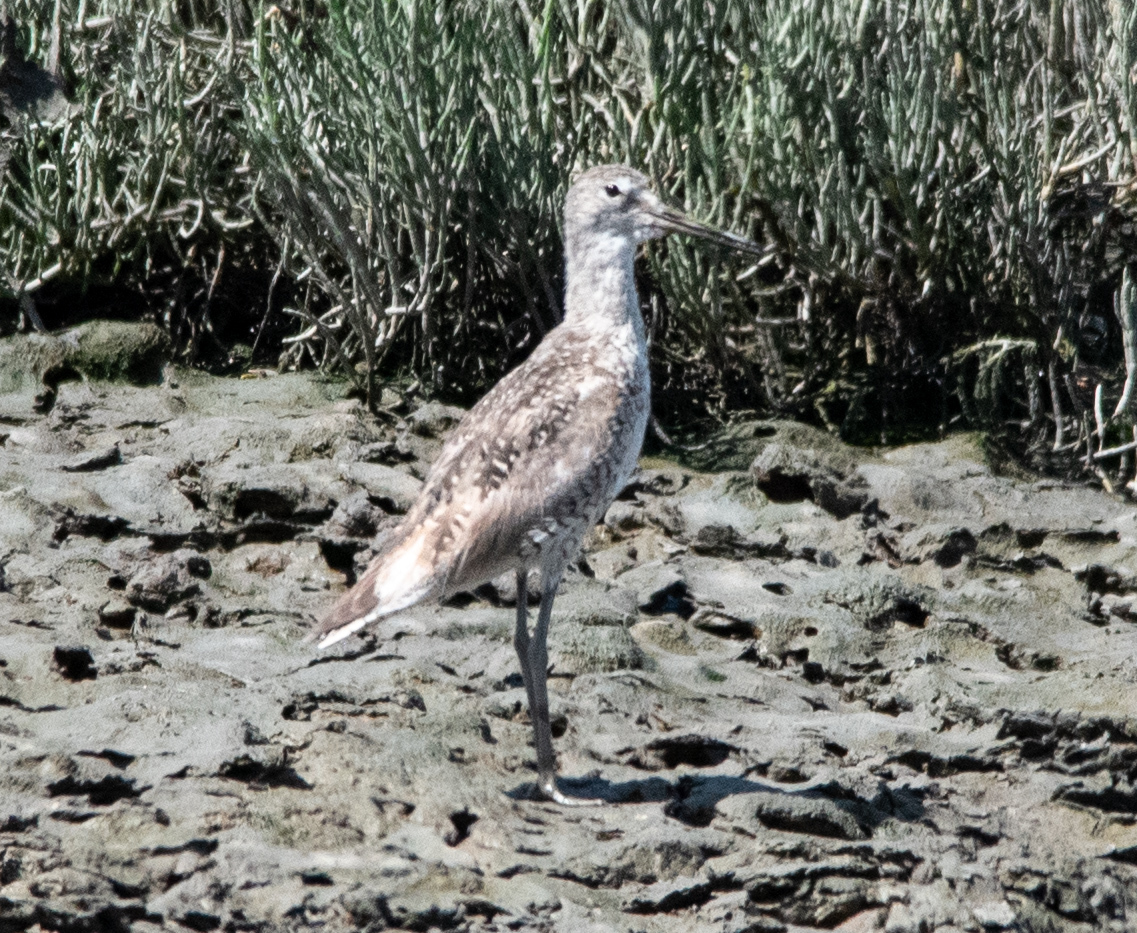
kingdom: Animalia
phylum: Chordata
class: Aves
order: Charadriiformes
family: Scolopacidae
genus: Tringa
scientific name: Tringa semipalmata
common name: Willet
